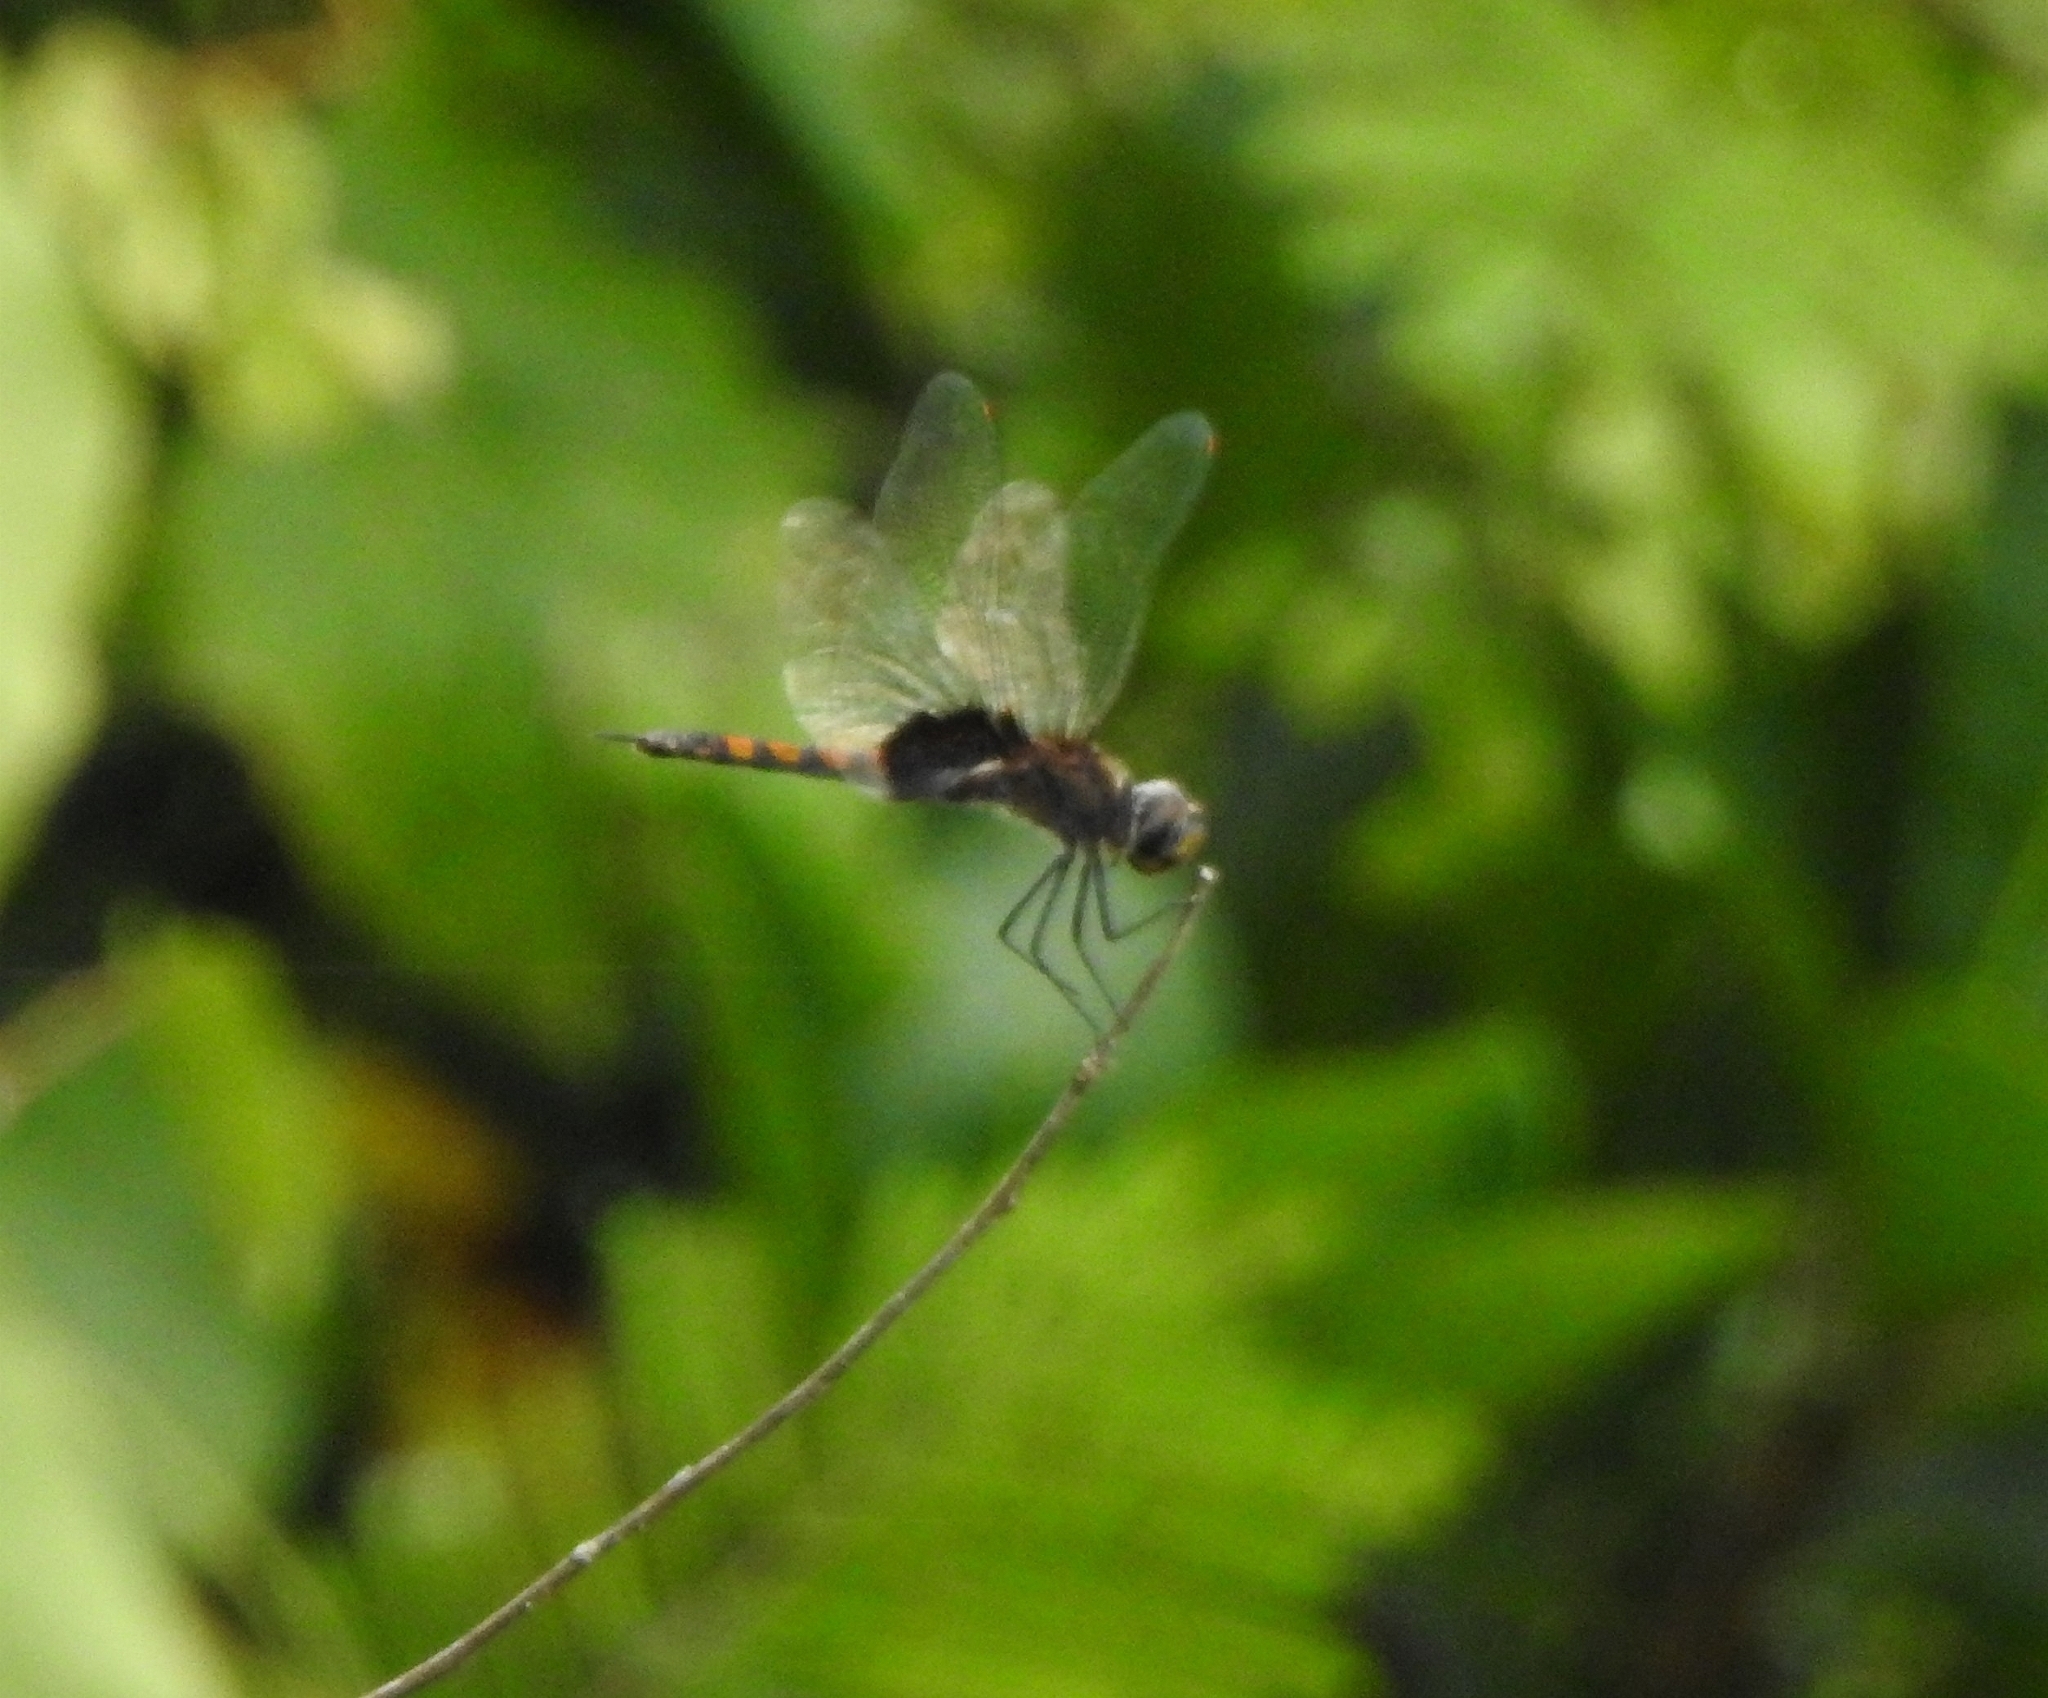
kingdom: Animalia
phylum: Arthropoda
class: Insecta
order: Odonata
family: Libellulidae
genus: Tramea
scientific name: Tramea limbata
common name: Ferruginous glider
